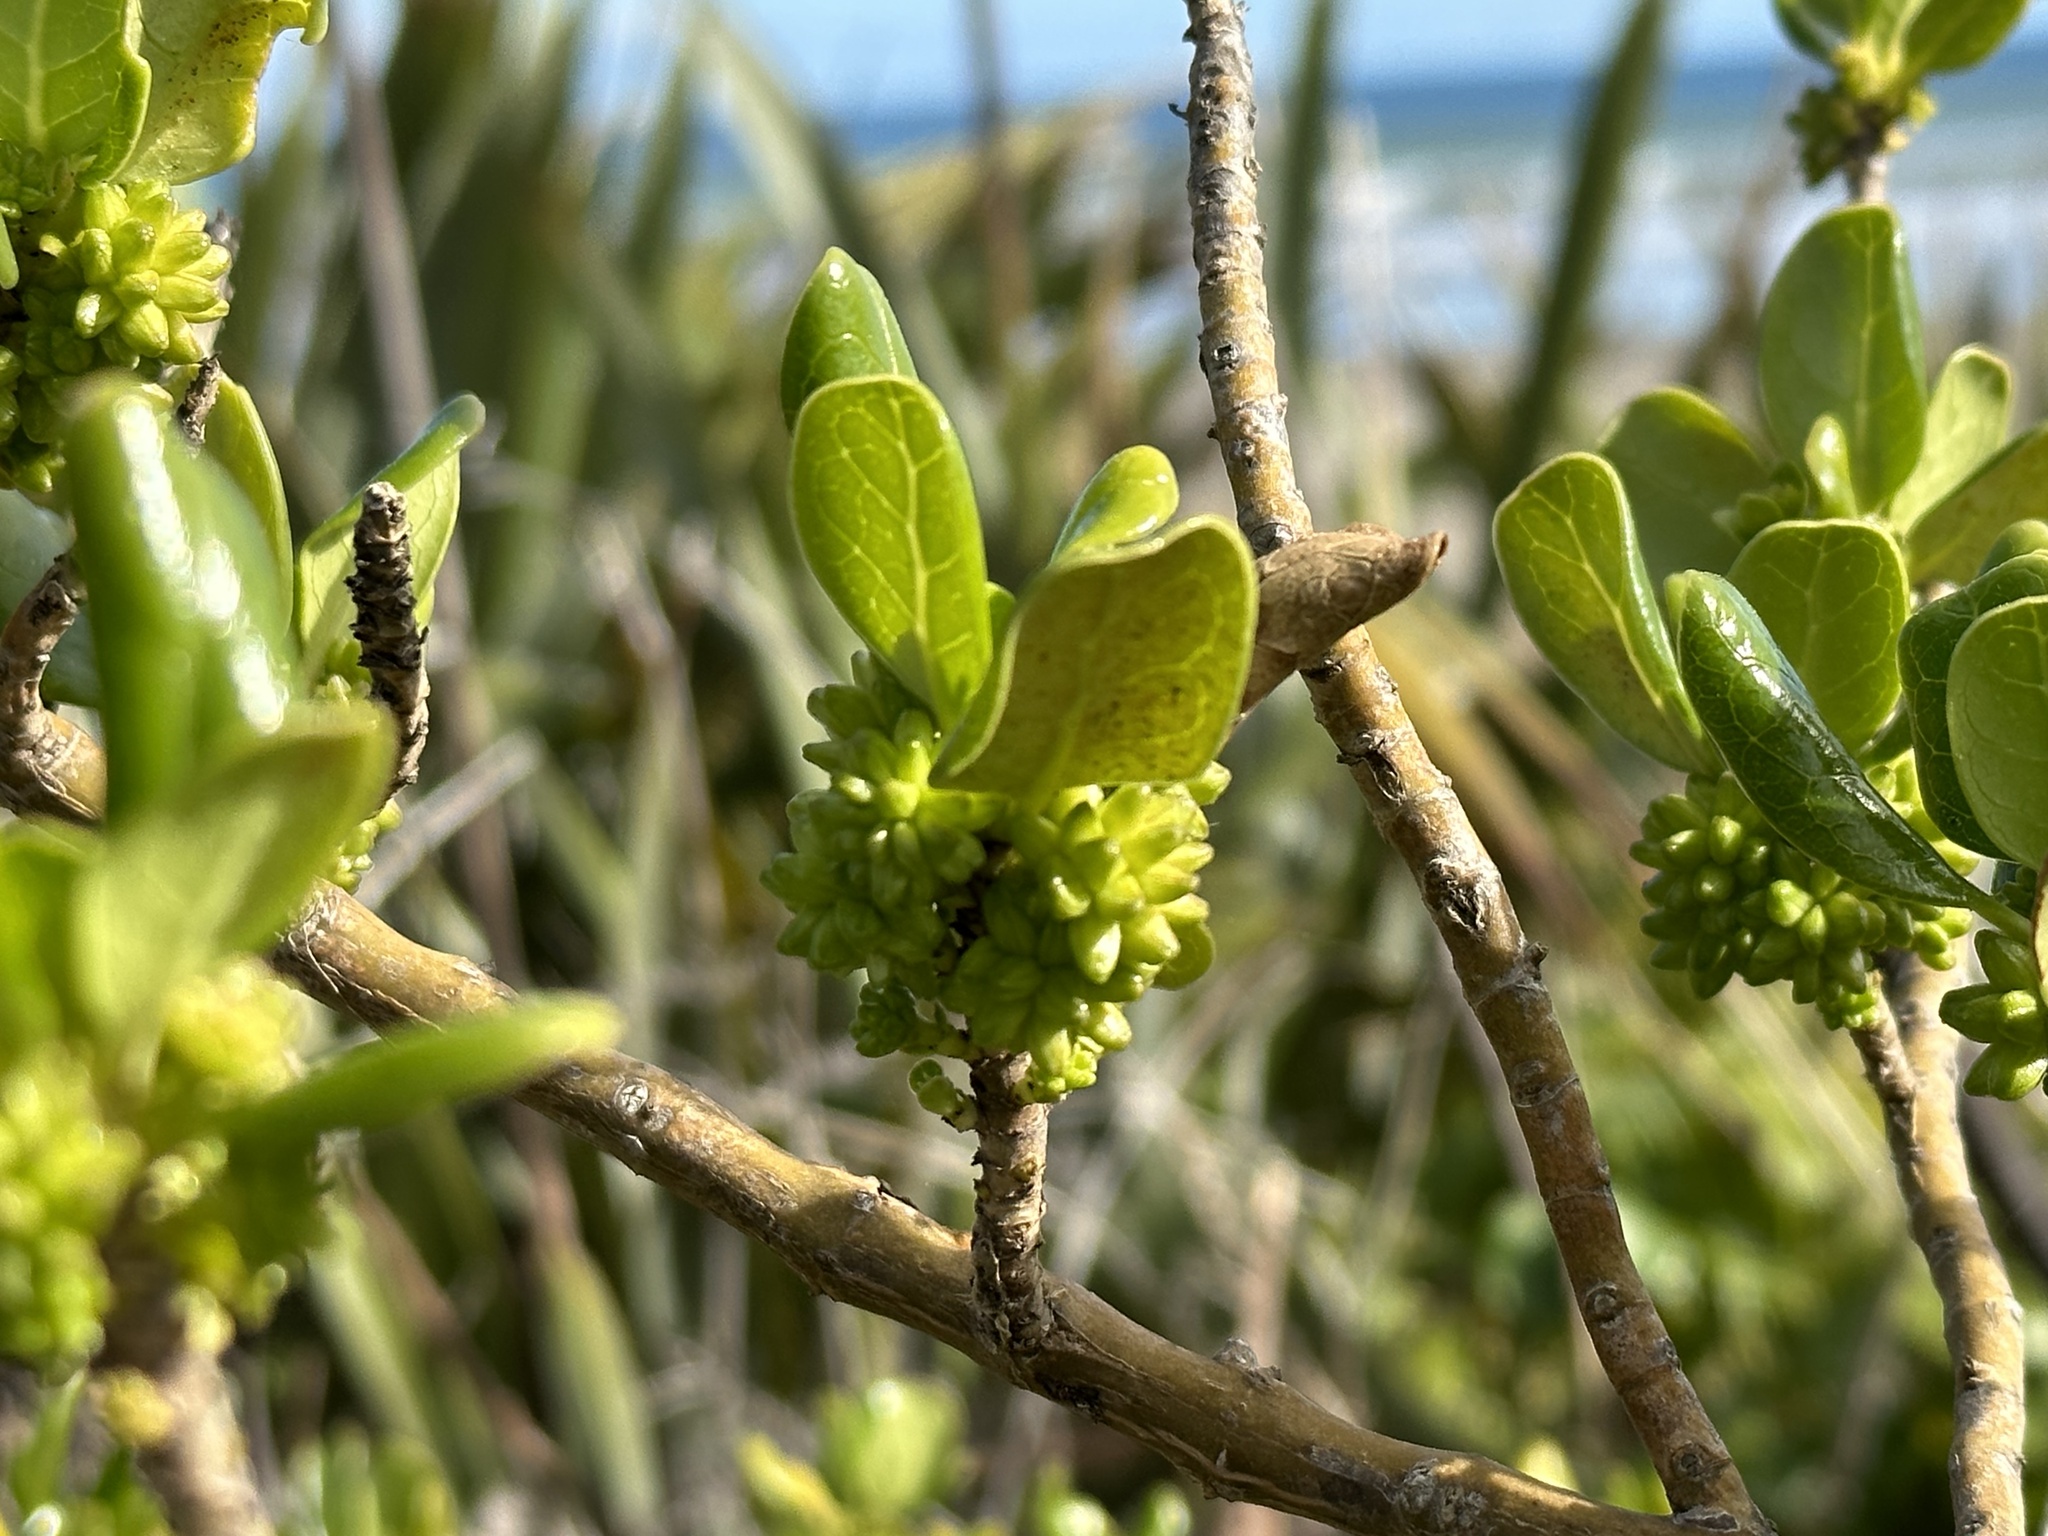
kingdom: Plantae
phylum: Tracheophyta
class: Magnoliopsida
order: Gentianales
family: Rubiaceae
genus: Coprosma
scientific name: Coprosma repens
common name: Tree bedstraw
